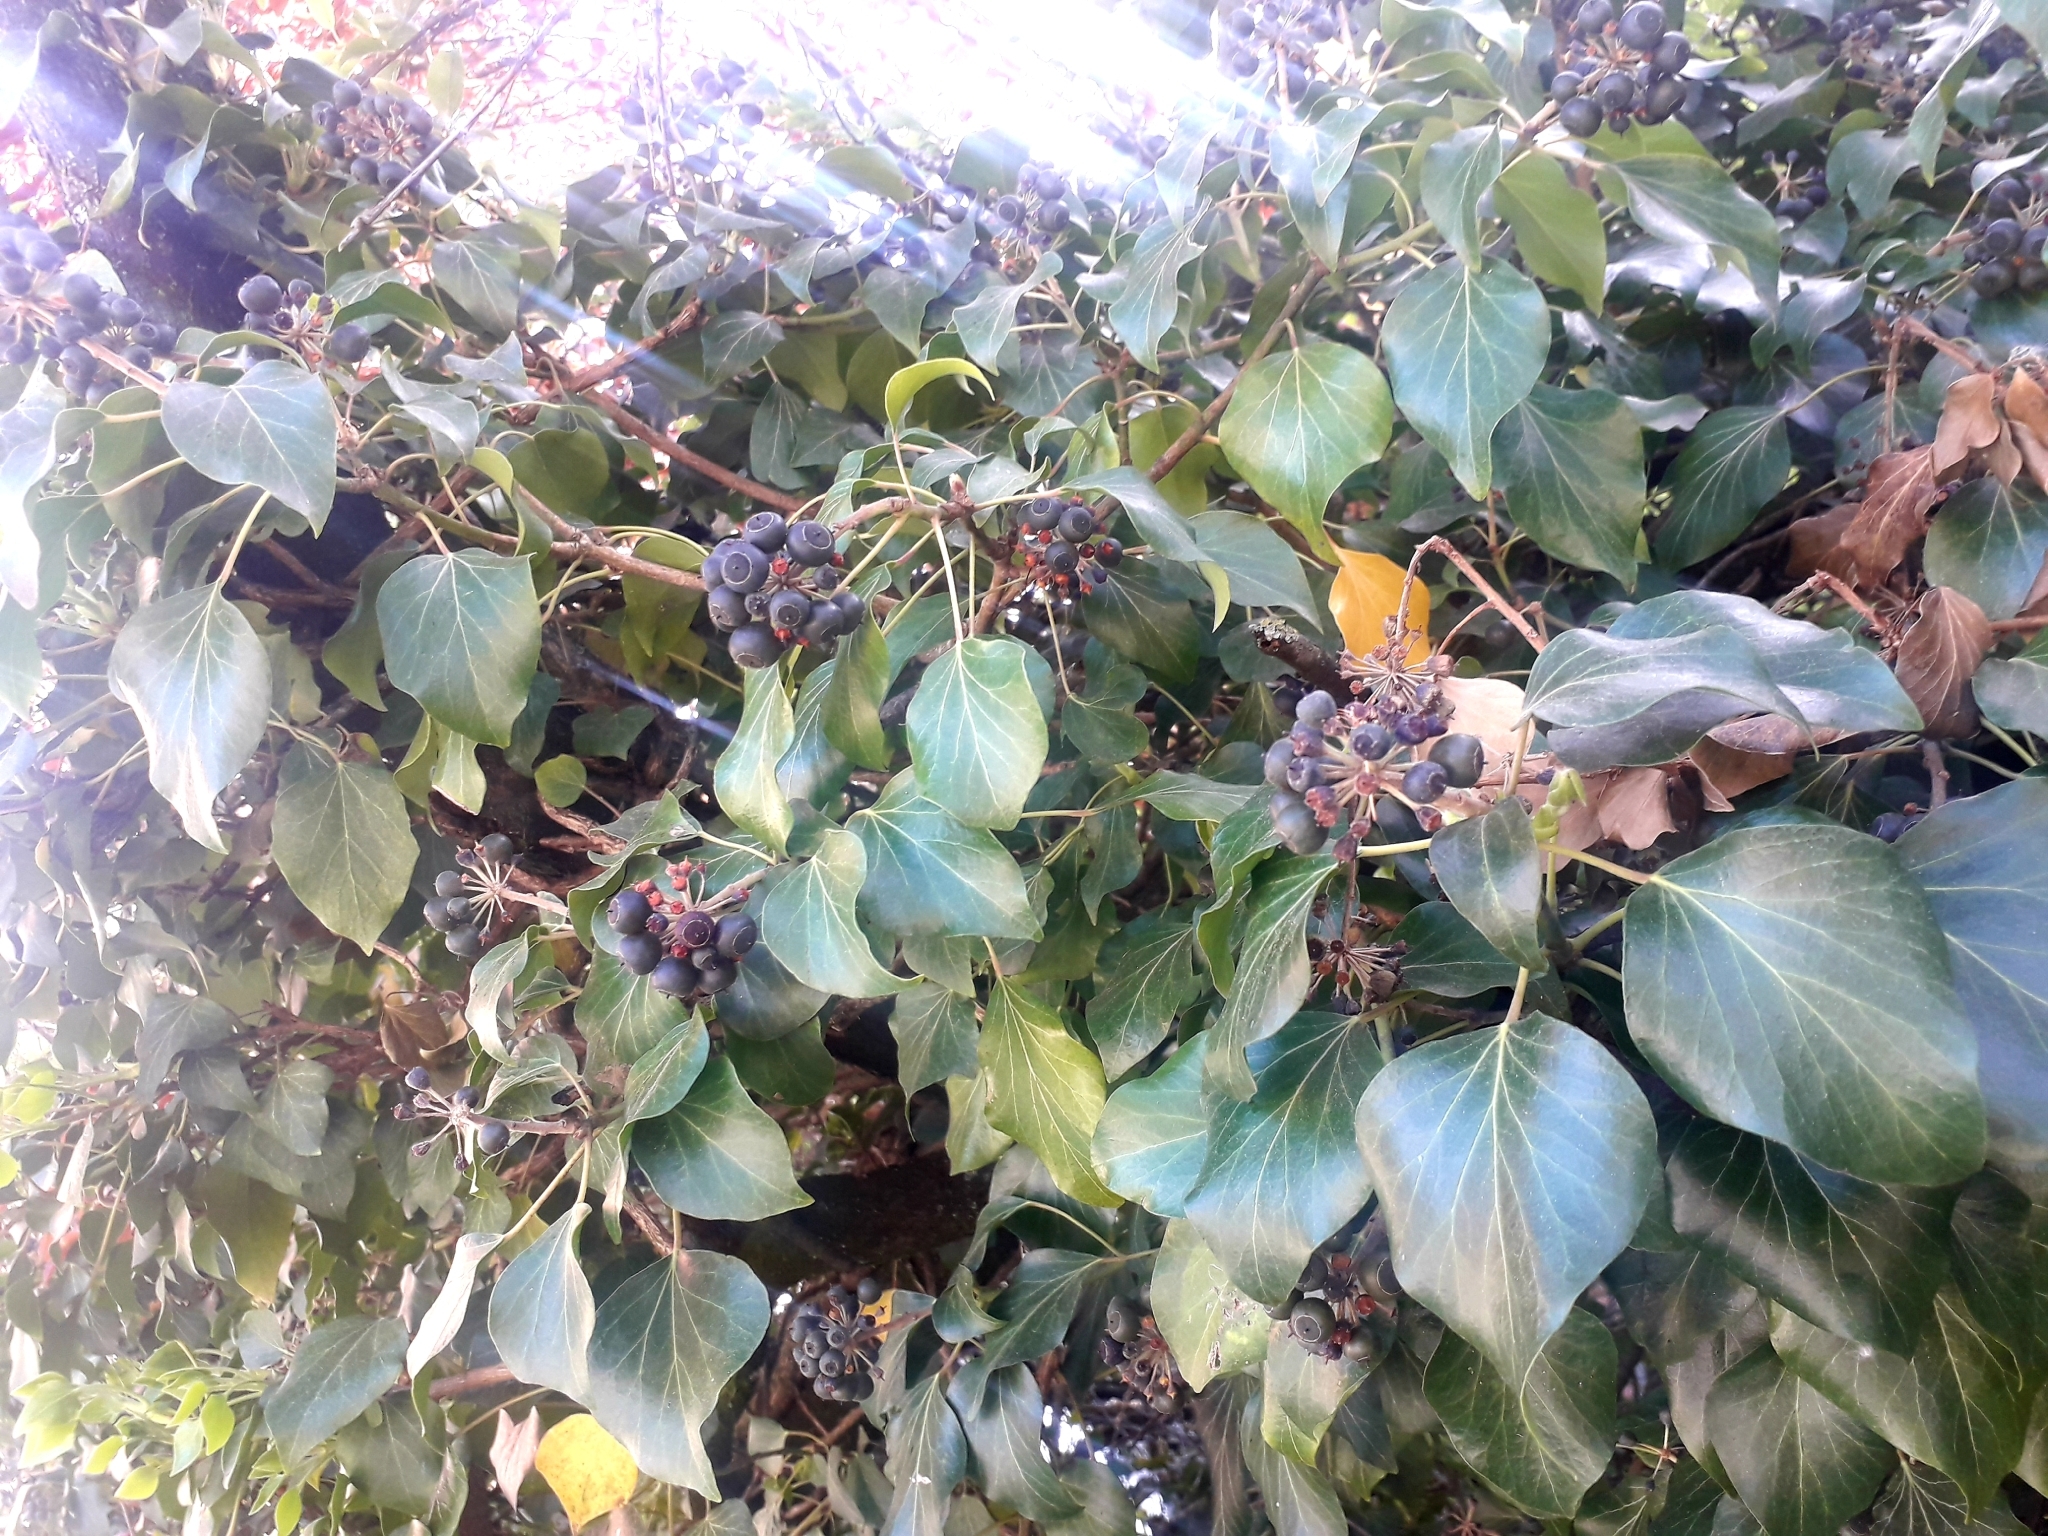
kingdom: Plantae
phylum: Tracheophyta
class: Magnoliopsida
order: Apiales
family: Araliaceae
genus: Hedera
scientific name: Hedera helix
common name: Ivy
